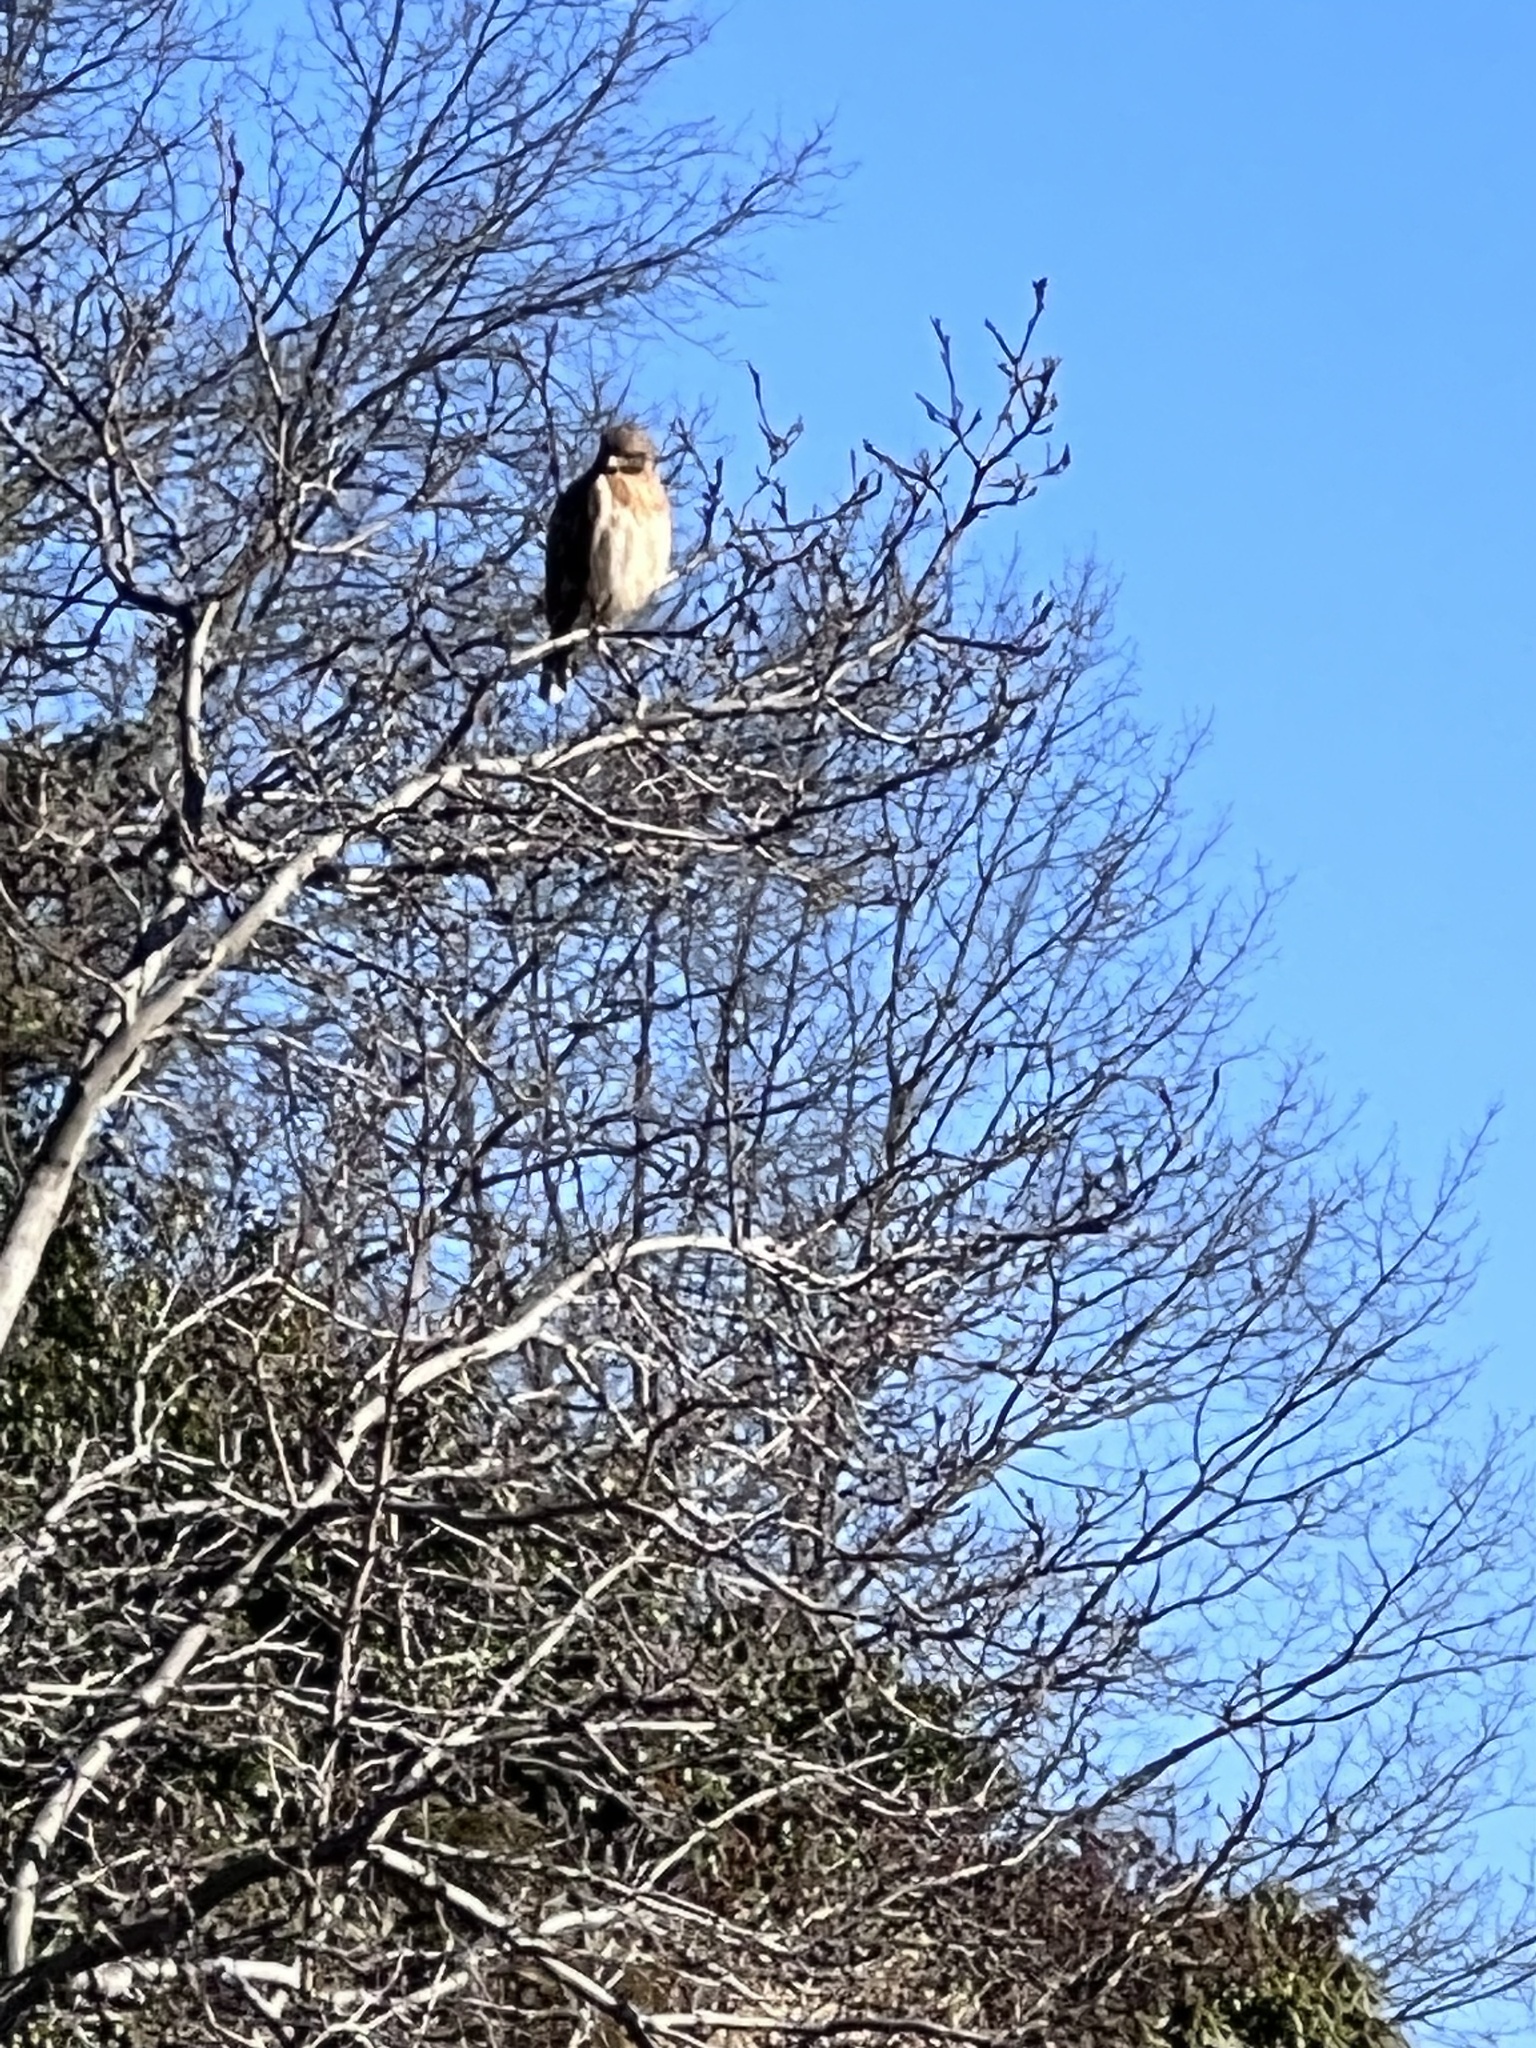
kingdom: Animalia
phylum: Chordata
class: Aves
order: Accipitriformes
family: Accipitridae
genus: Buteo
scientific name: Buteo lineatus
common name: Red-shouldered hawk
